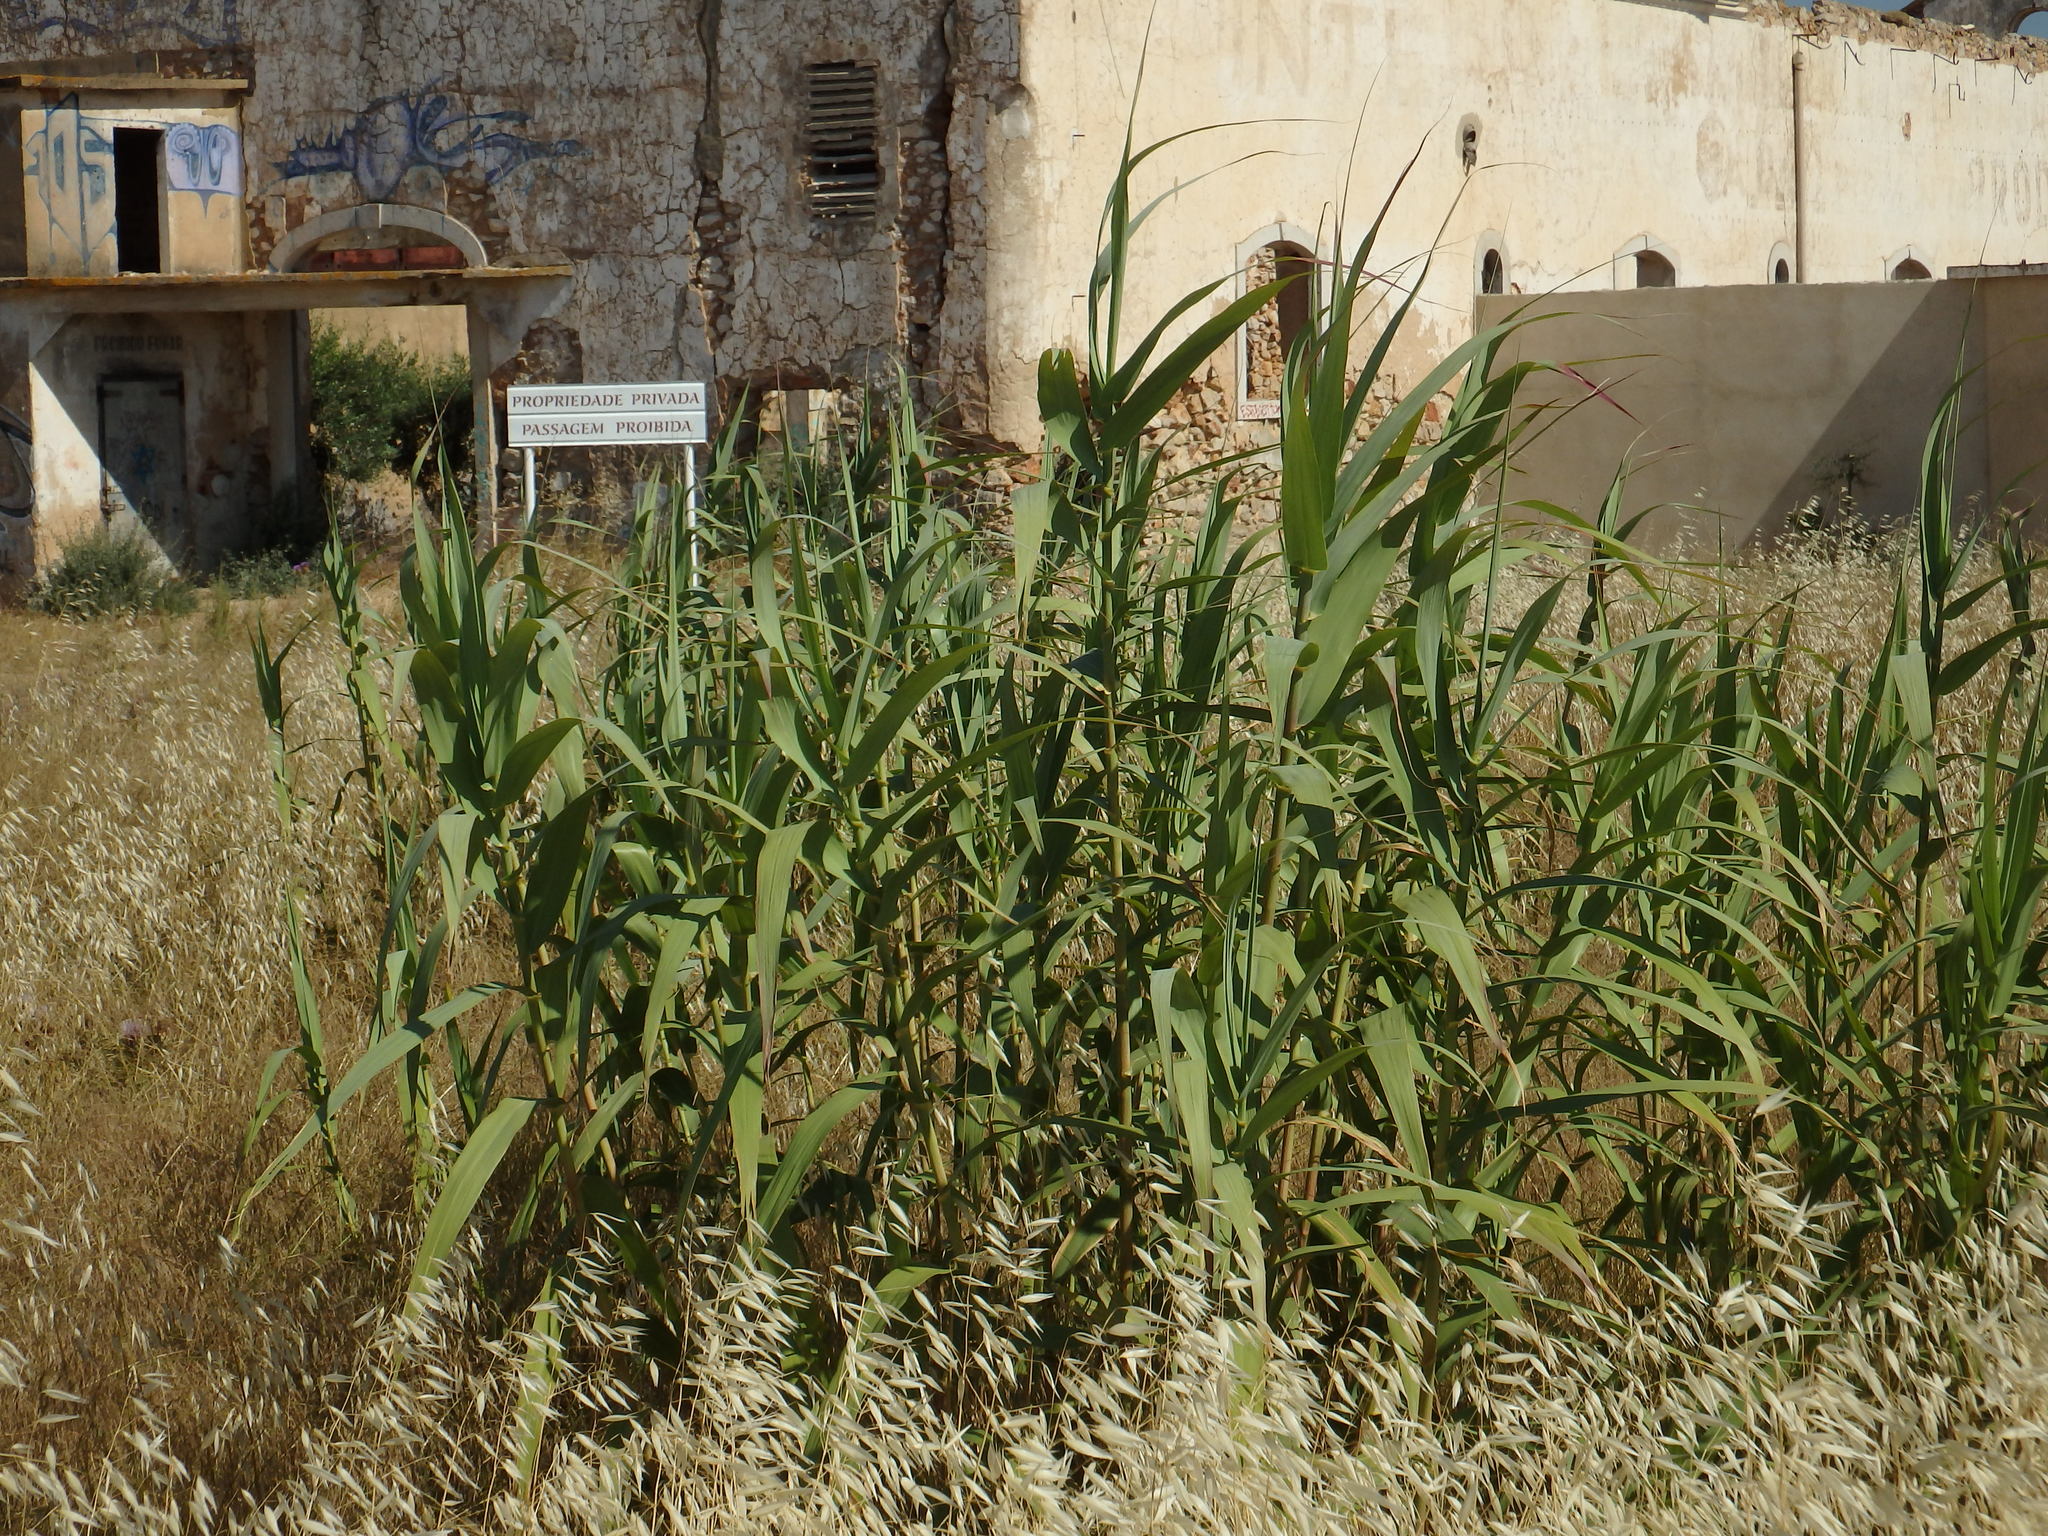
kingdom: Plantae
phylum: Tracheophyta
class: Liliopsida
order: Poales
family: Poaceae
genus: Arundo
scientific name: Arundo donax
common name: Giant reed
